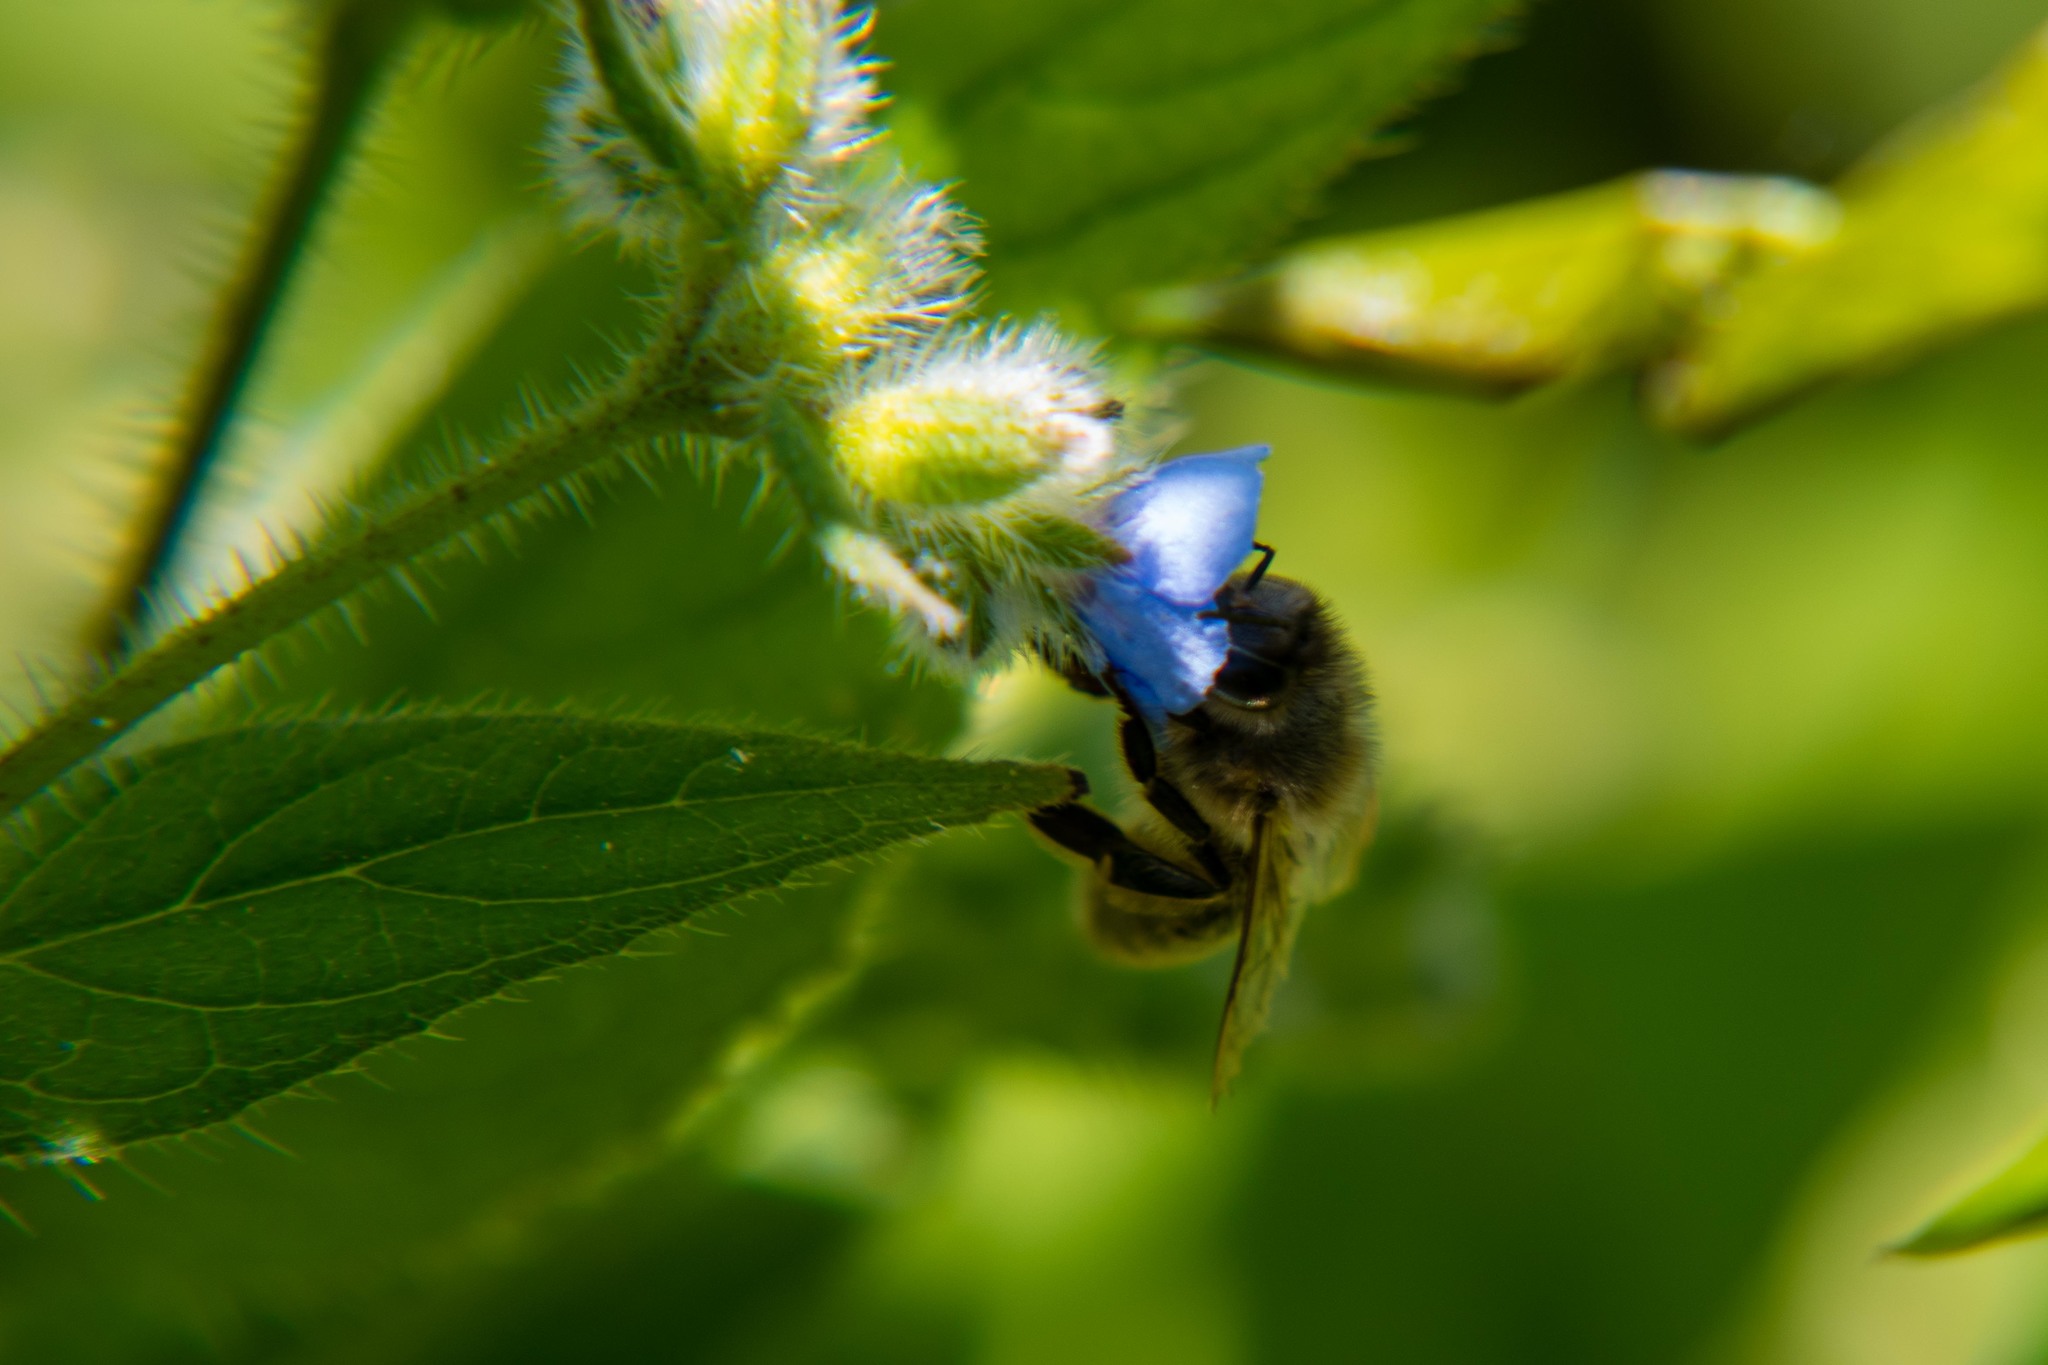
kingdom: Animalia
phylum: Arthropoda
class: Insecta
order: Hymenoptera
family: Apidae
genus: Apis
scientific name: Apis mellifera
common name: Honey bee
